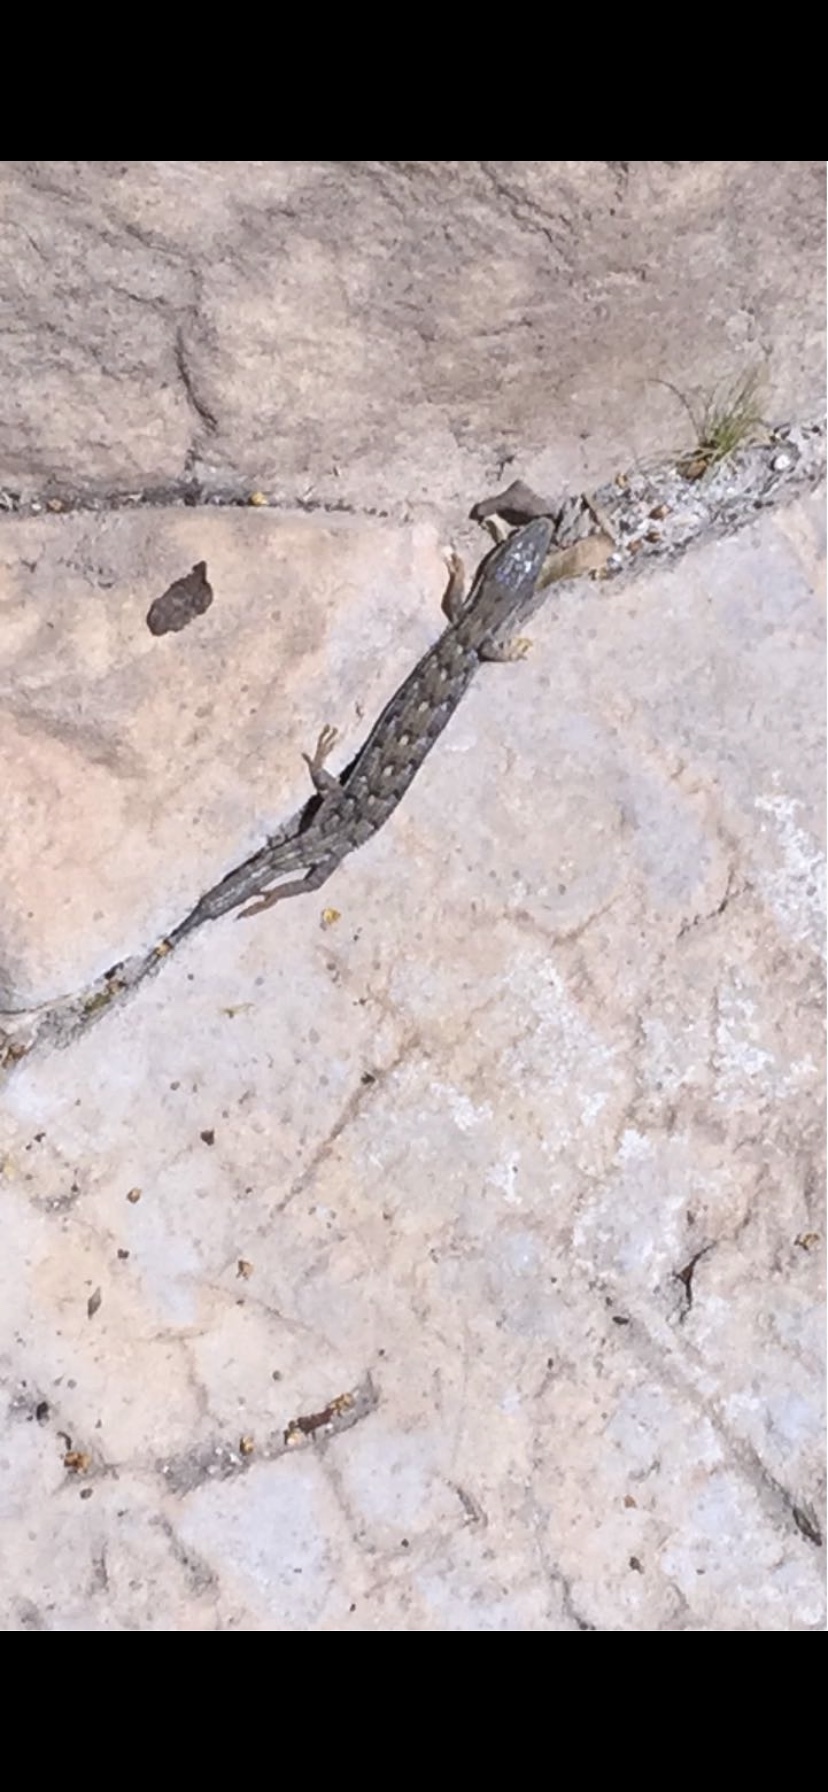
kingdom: Animalia
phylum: Chordata
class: Squamata
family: Anguidae
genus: Elgaria
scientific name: Elgaria multicarinata
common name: Southern alligator lizard
